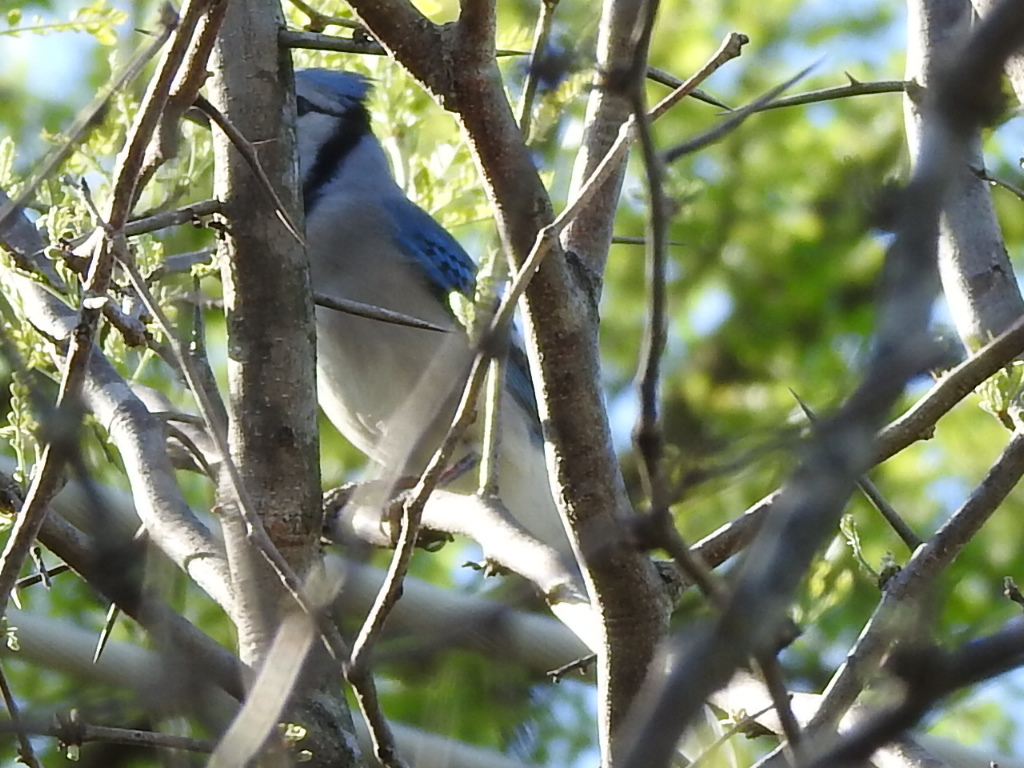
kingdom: Animalia
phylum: Chordata
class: Aves
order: Passeriformes
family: Corvidae
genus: Cyanocitta
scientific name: Cyanocitta cristata
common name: Blue jay
